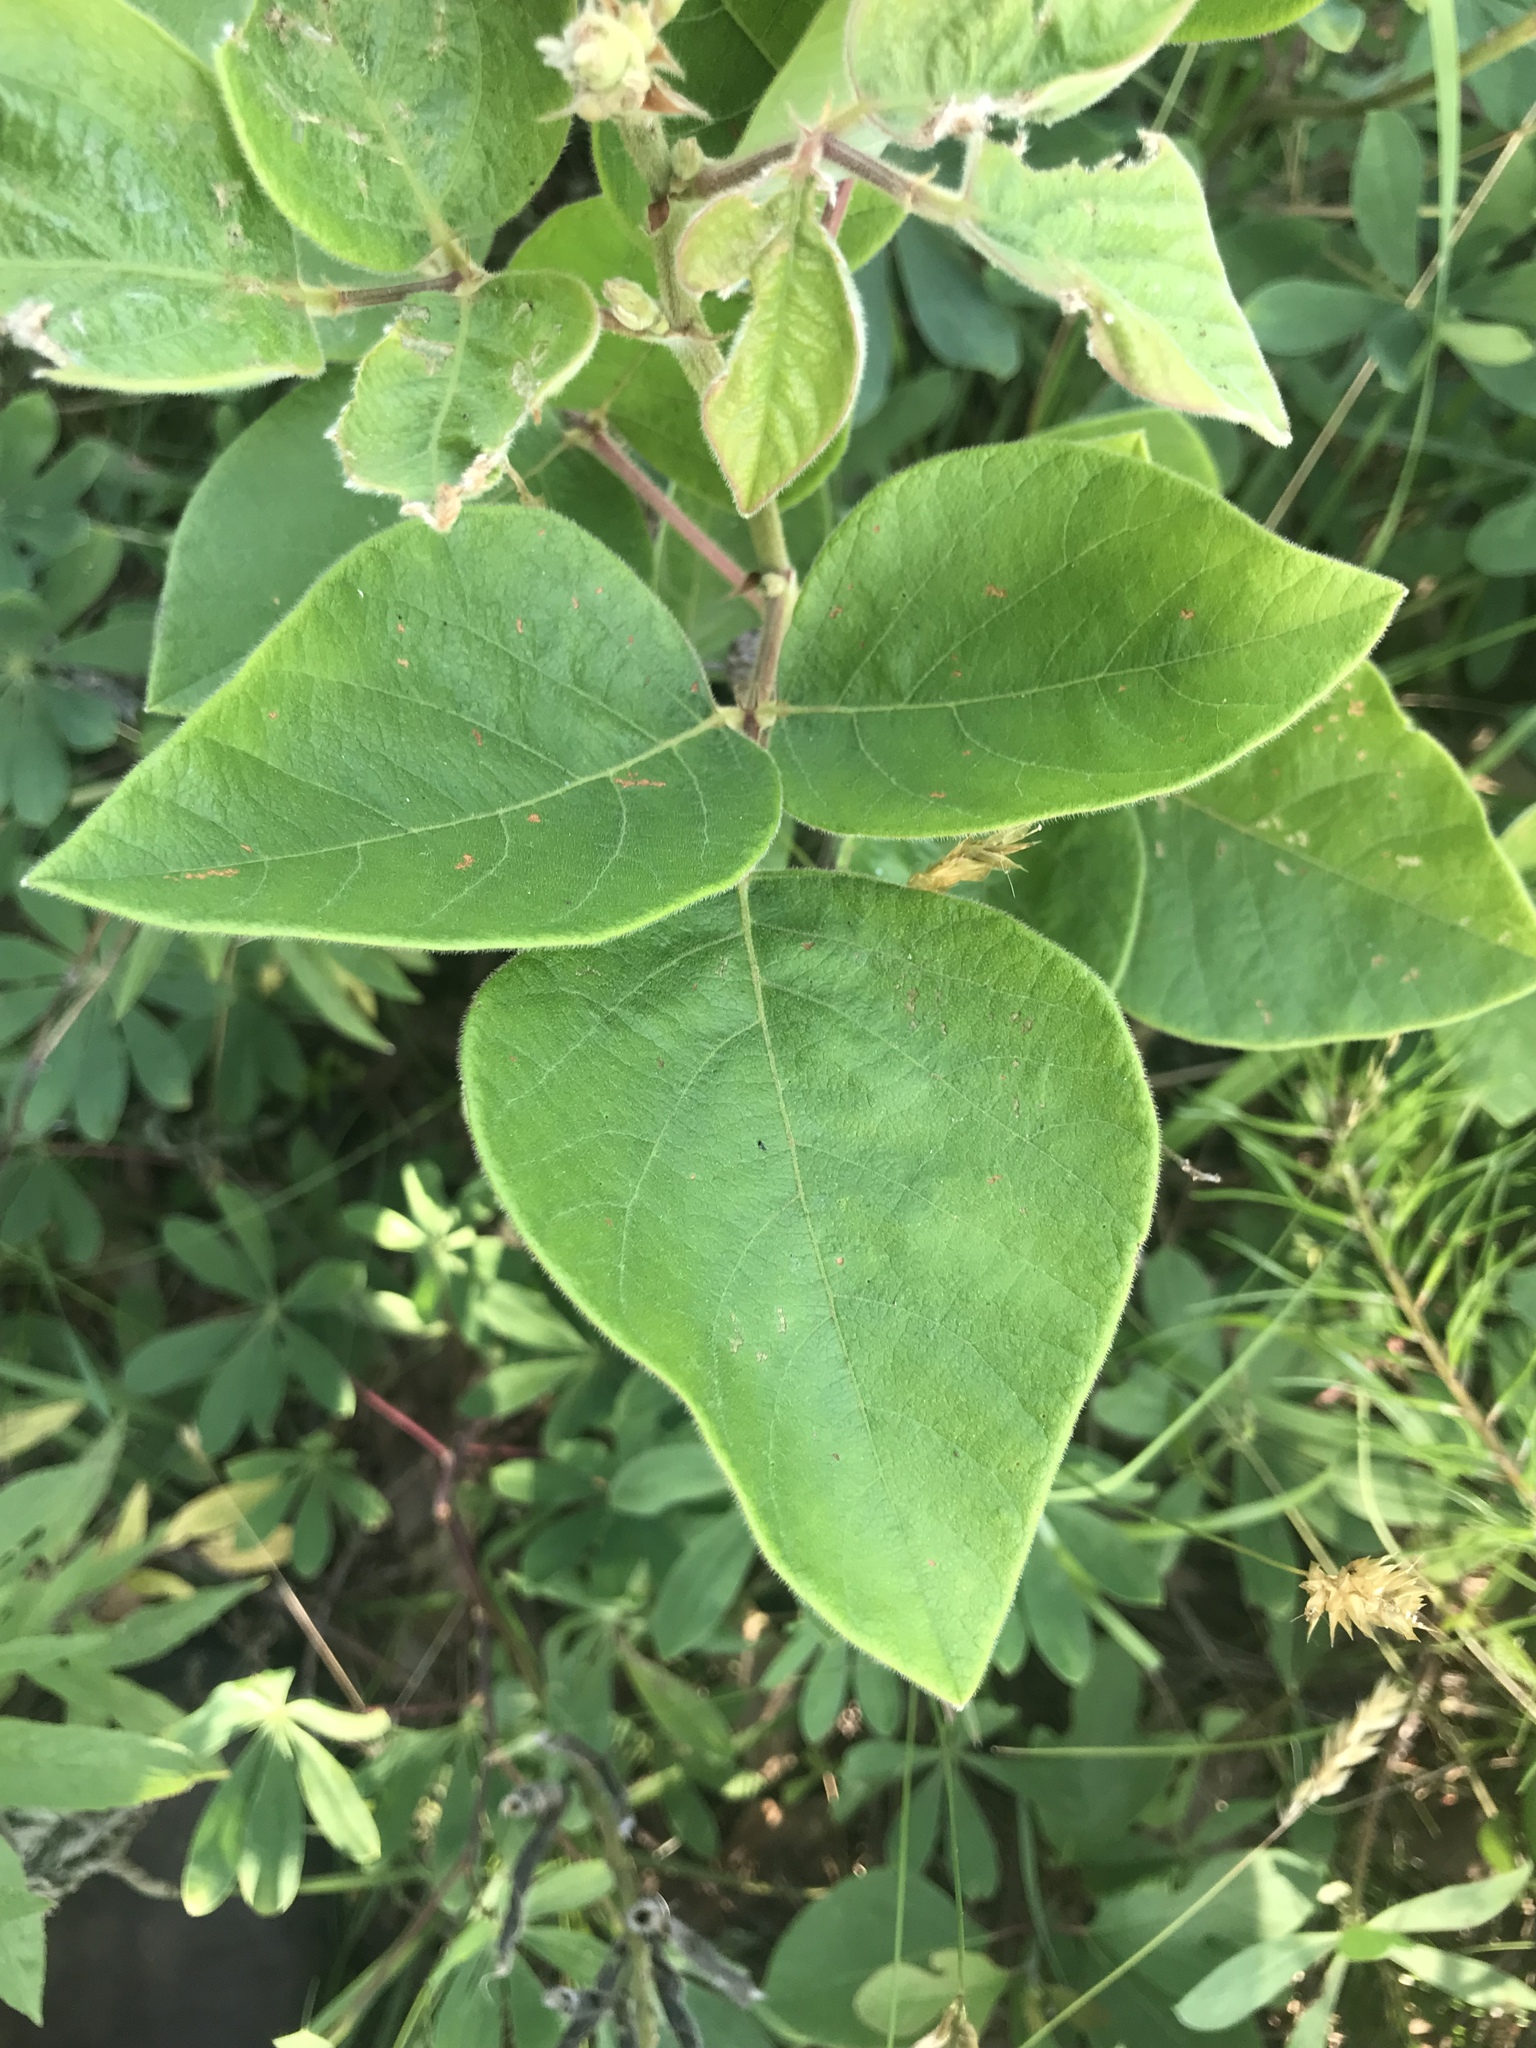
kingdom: Plantae
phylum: Tracheophyta
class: Magnoliopsida
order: Fabales
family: Fabaceae
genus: Desmodium
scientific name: Desmodium viridiflorum
